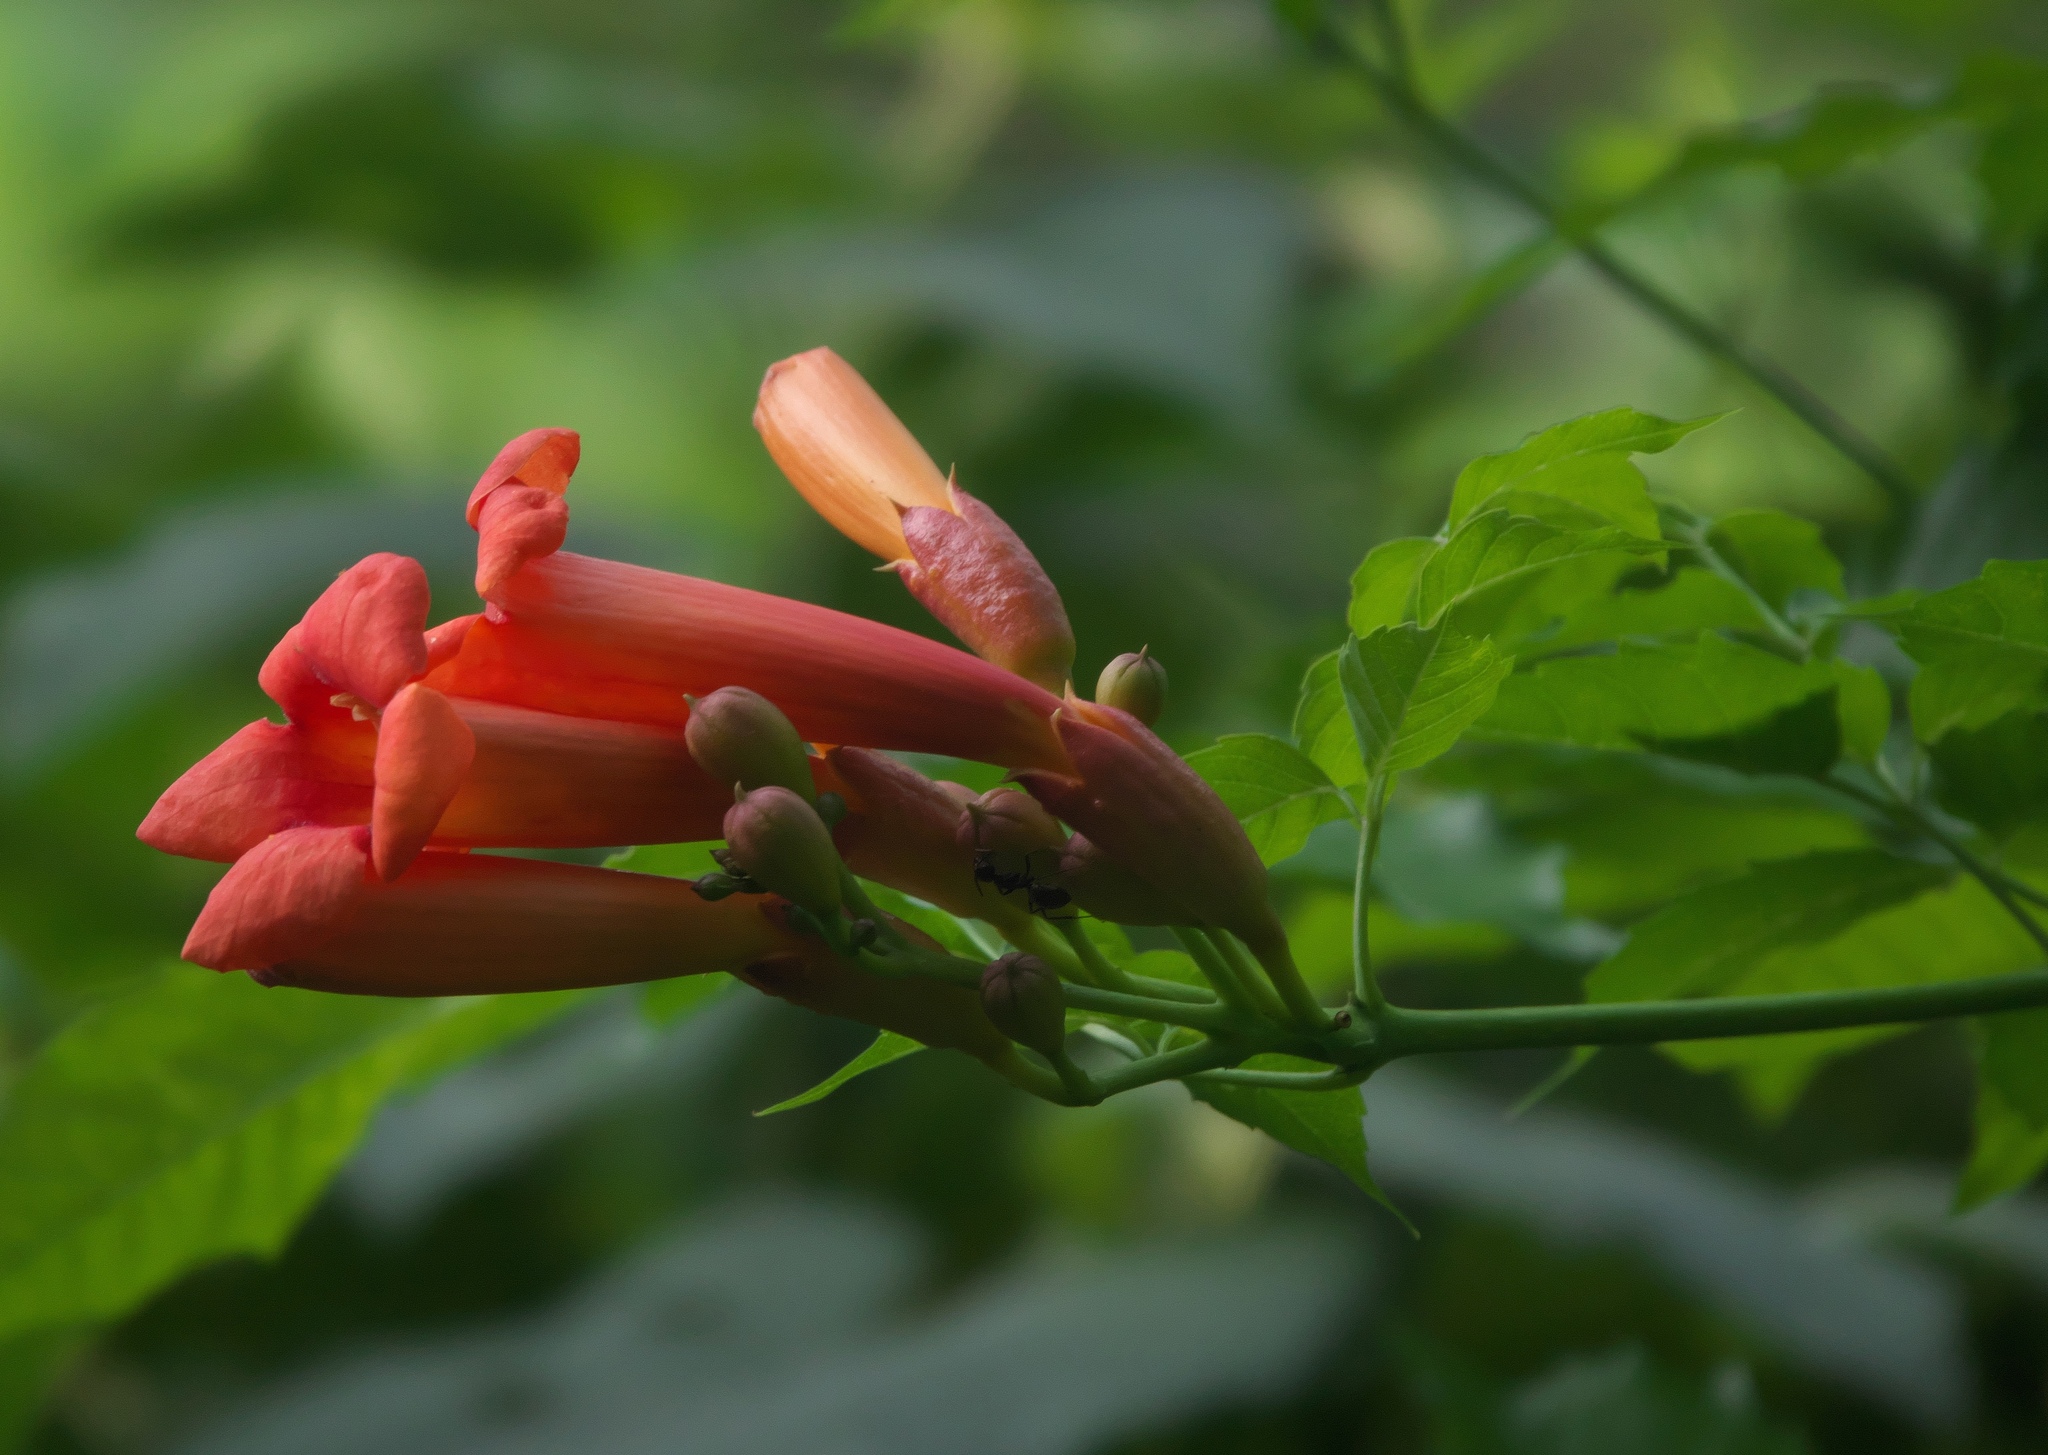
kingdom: Plantae
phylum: Tracheophyta
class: Magnoliopsida
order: Lamiales
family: Bignoniaceae
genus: Campsis
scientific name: Campsis radicans
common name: Trumpet-creeper
